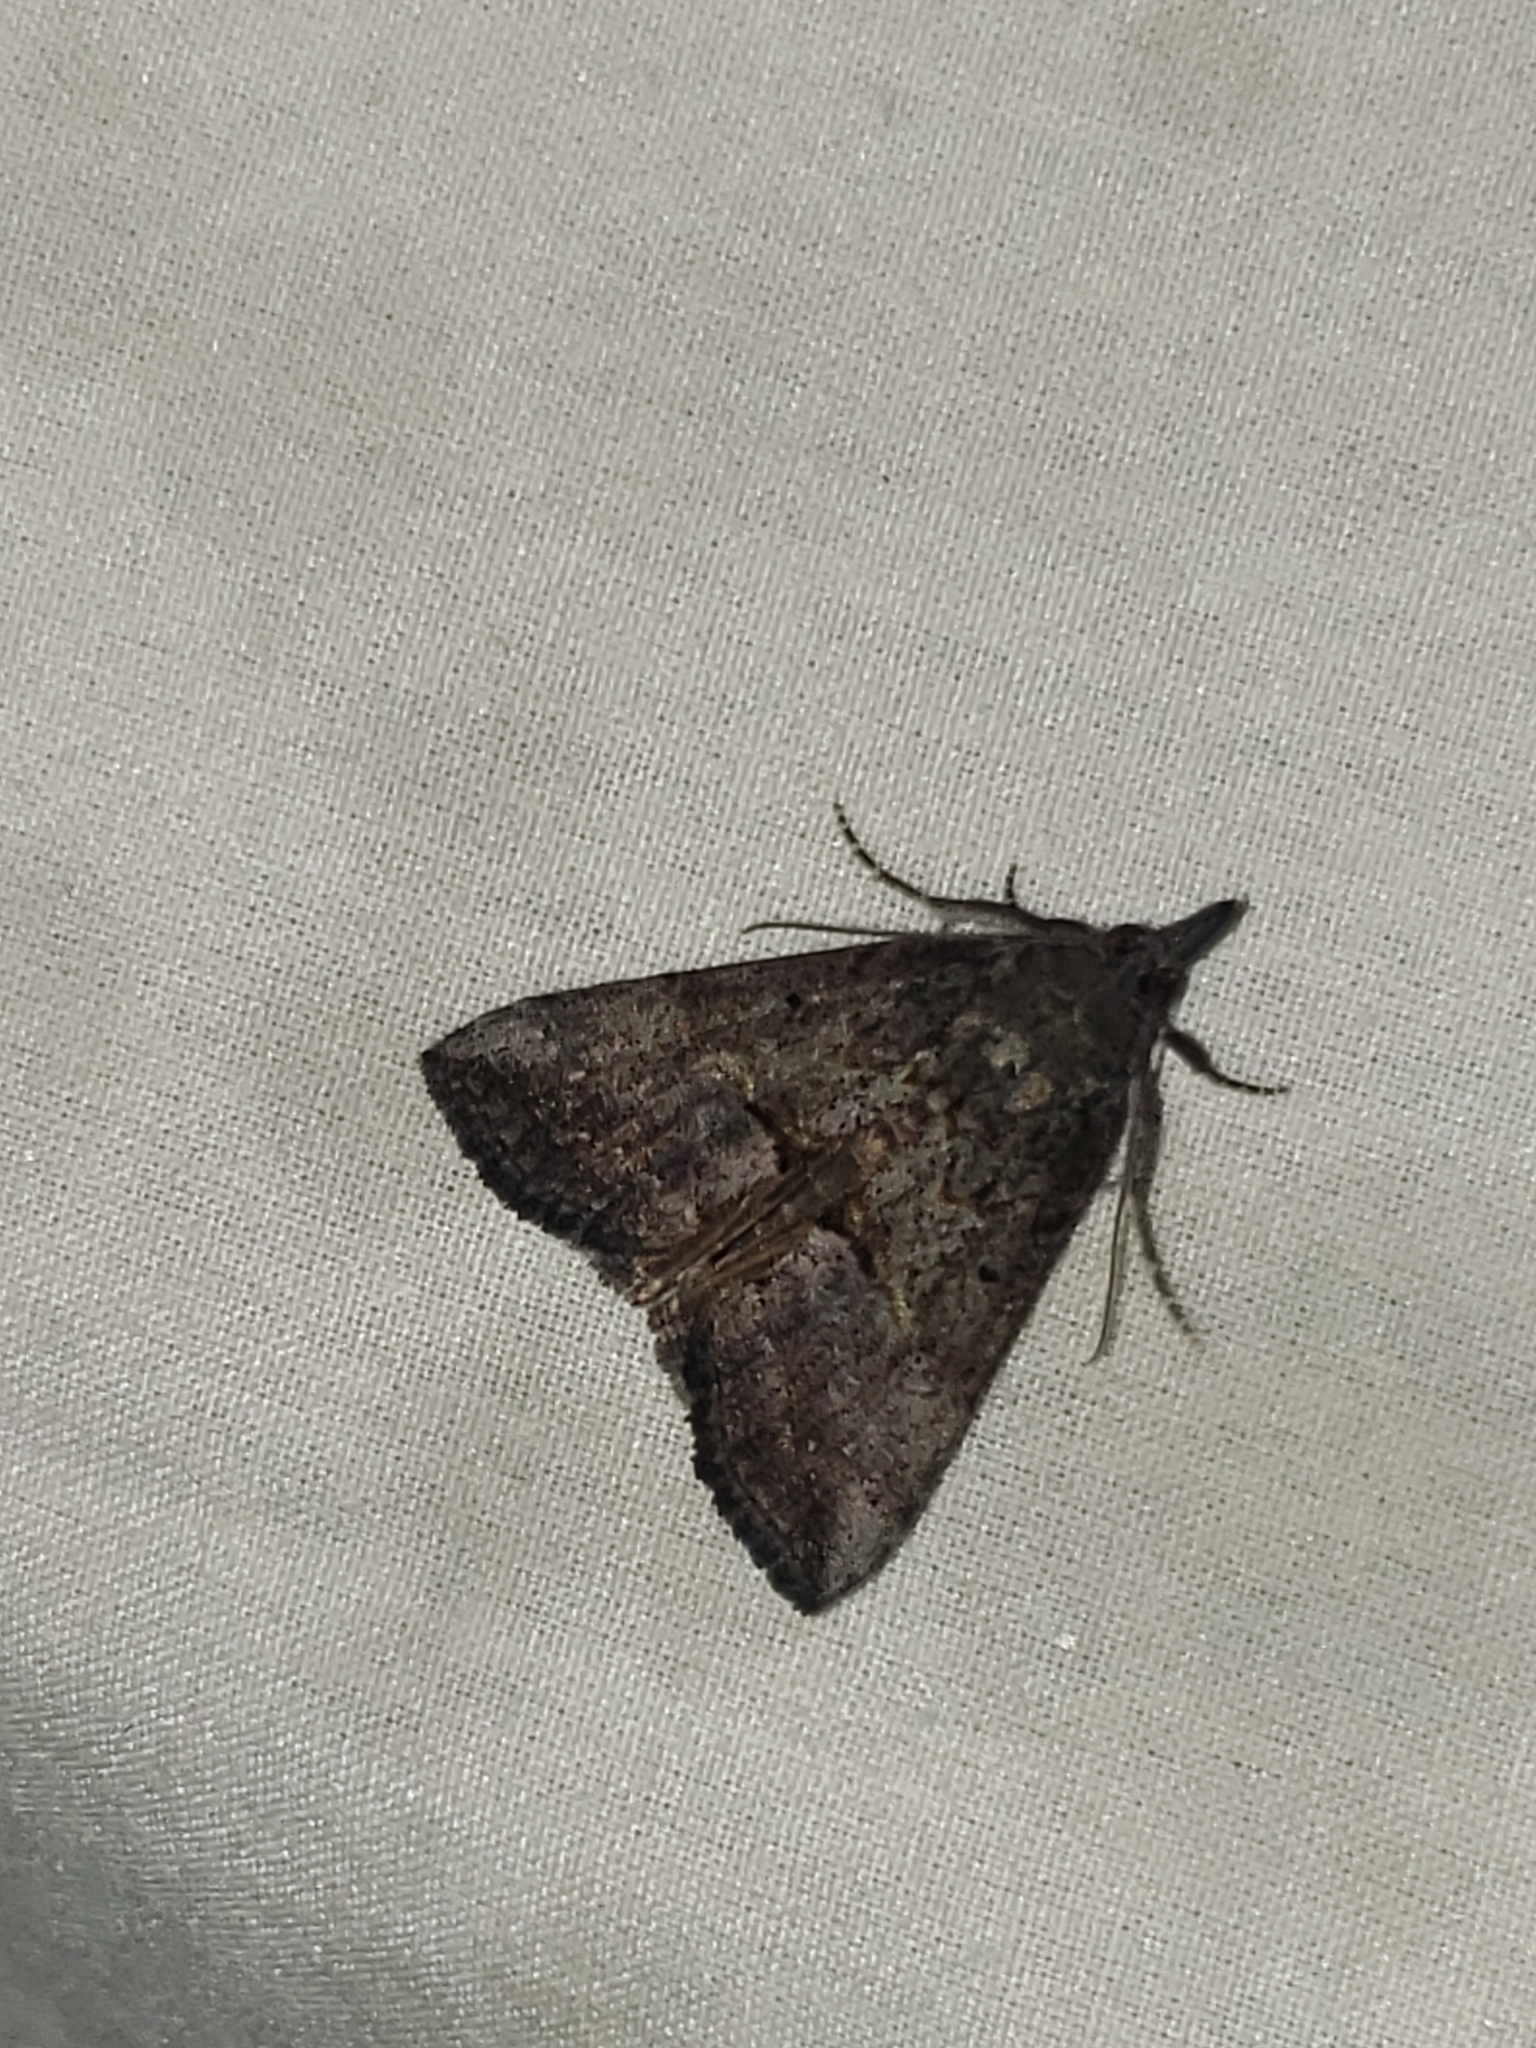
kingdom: Animalia
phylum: Arthropoda
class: Insecta
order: Lepidoptera
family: Erebidae
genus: Hypena
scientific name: Hypena scabra
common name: Green cloverworm
